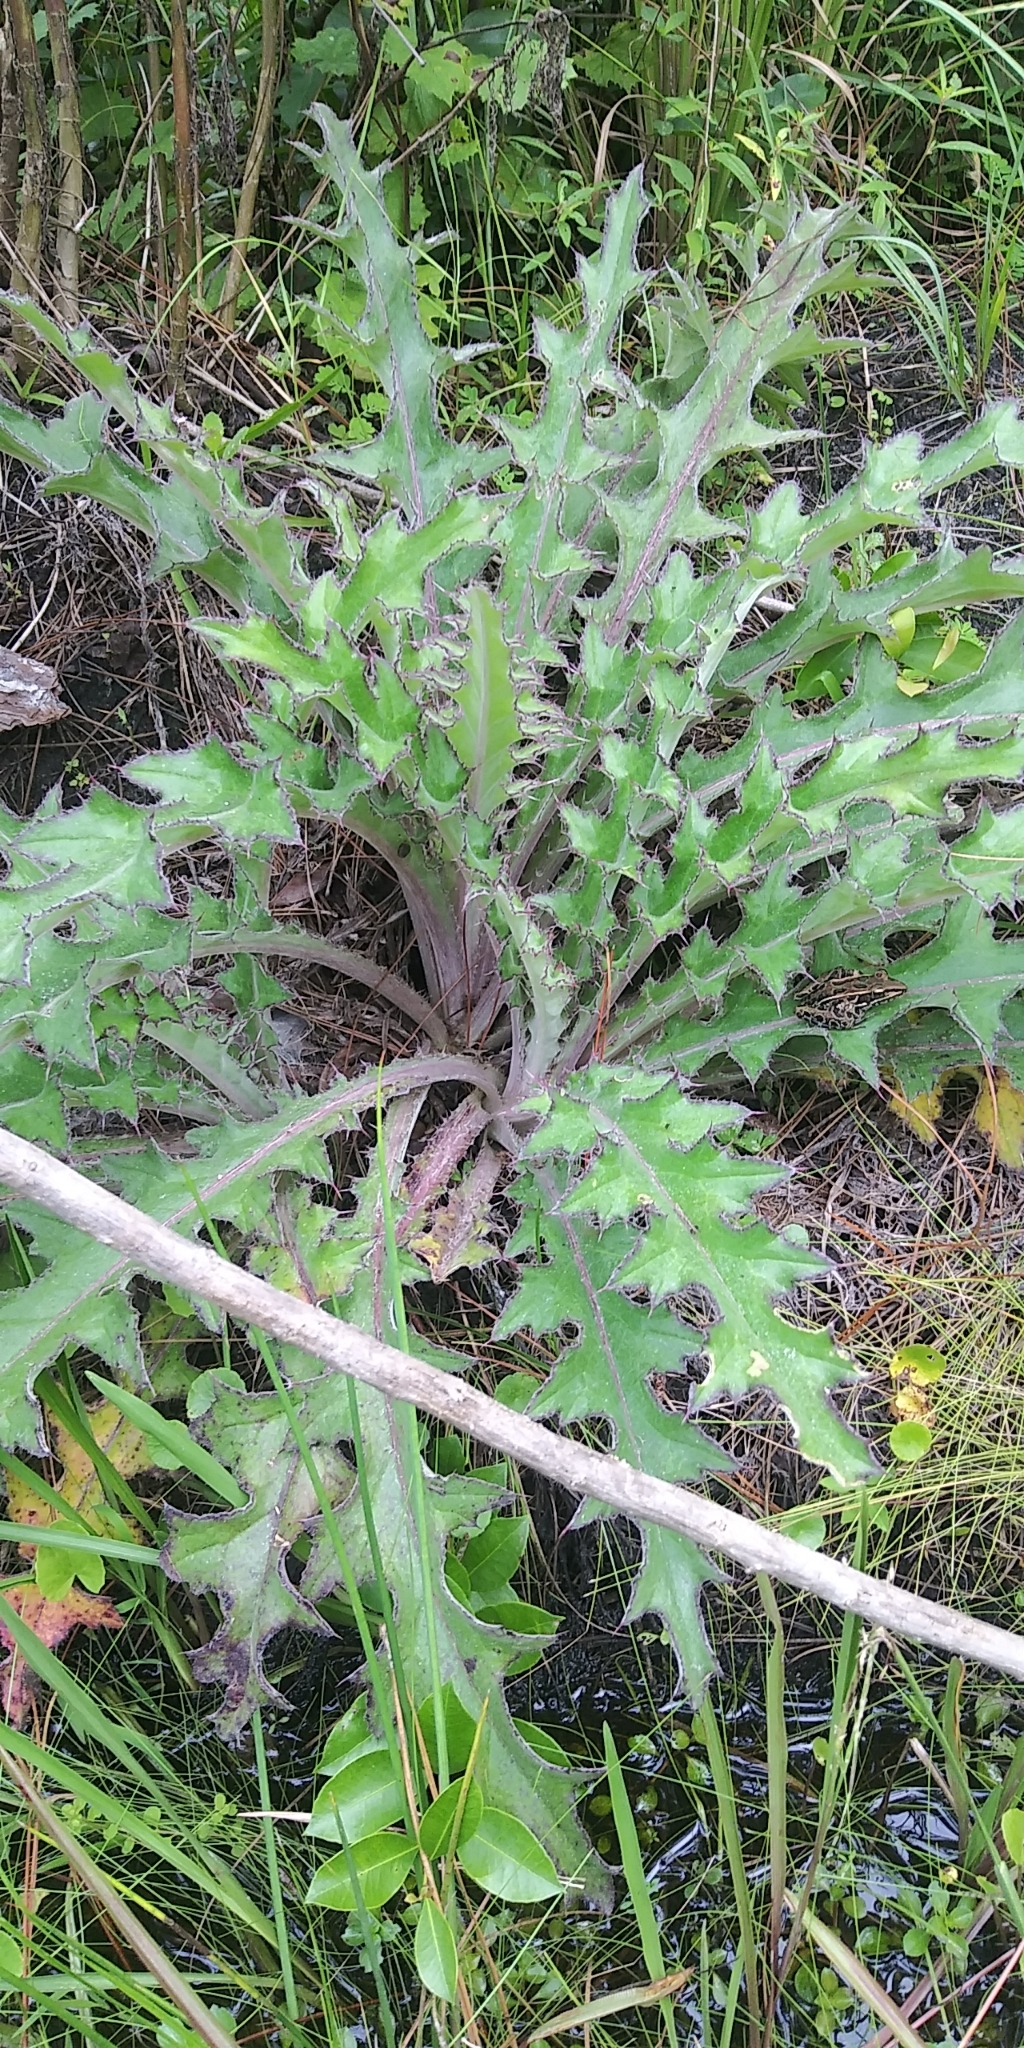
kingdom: Plantae
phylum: Tracheophyta
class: Magnoliopsida
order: Asterales
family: Asteraceae
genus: Cirsium
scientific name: Cirsium horridulum
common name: Bristly thistle
